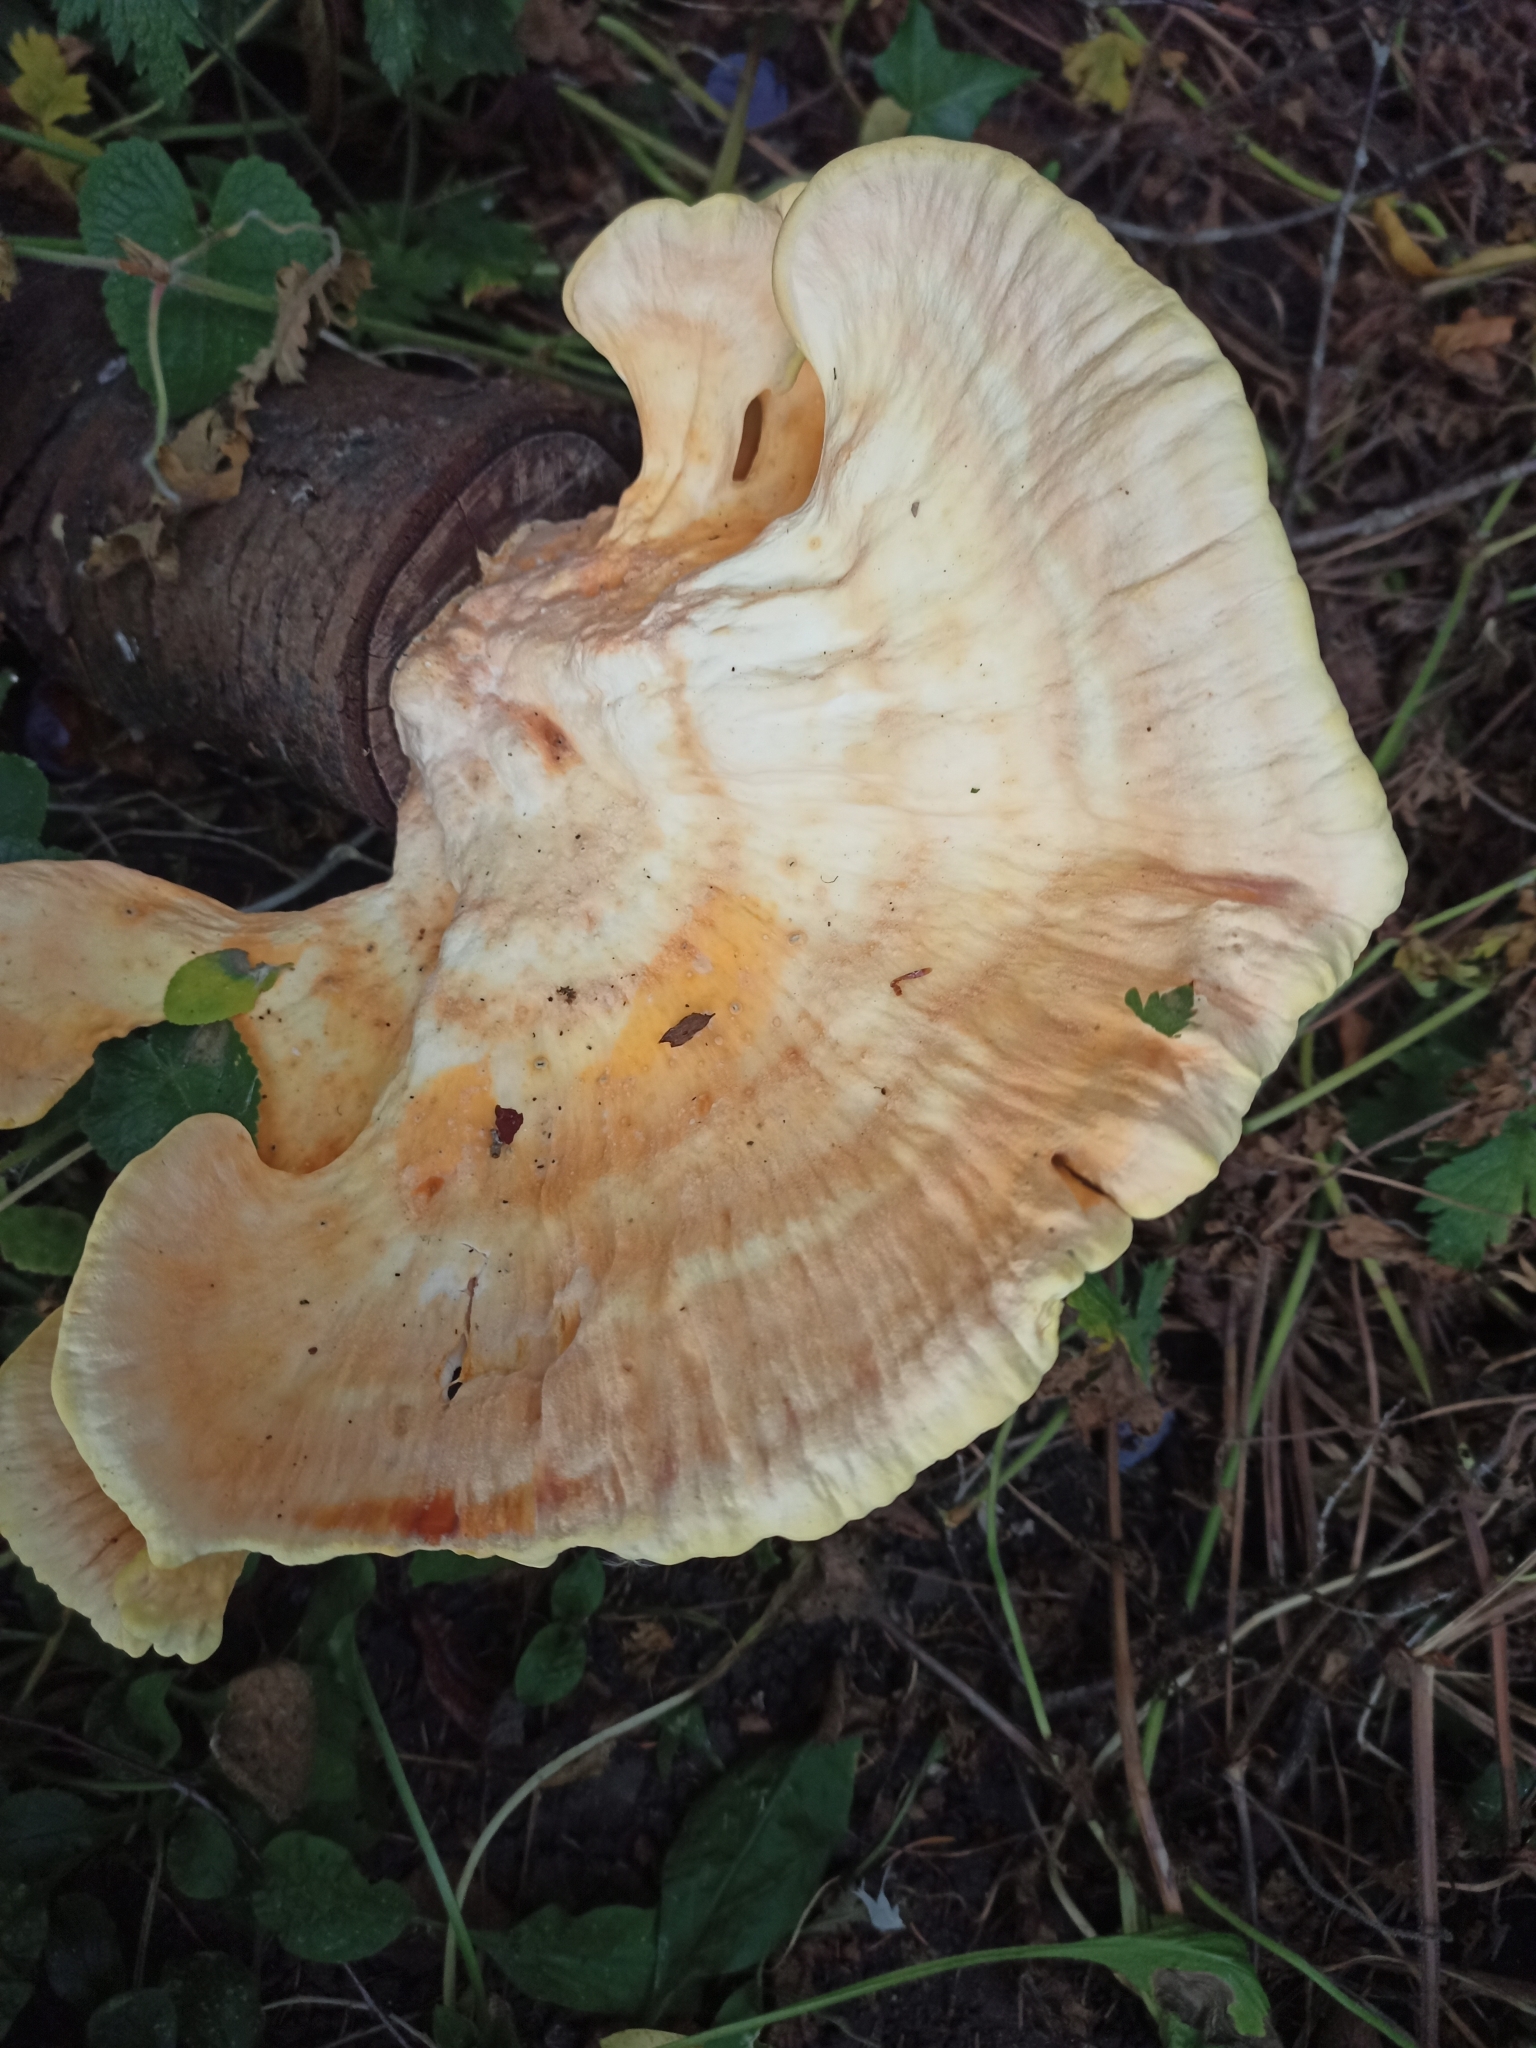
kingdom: Fungi
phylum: Basidiomycota
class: Agaricomycetes
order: Polyporales
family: Laetiporaceae
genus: Laetiporus
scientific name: Laetiporus sulphureus
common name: Chicken of the woods
